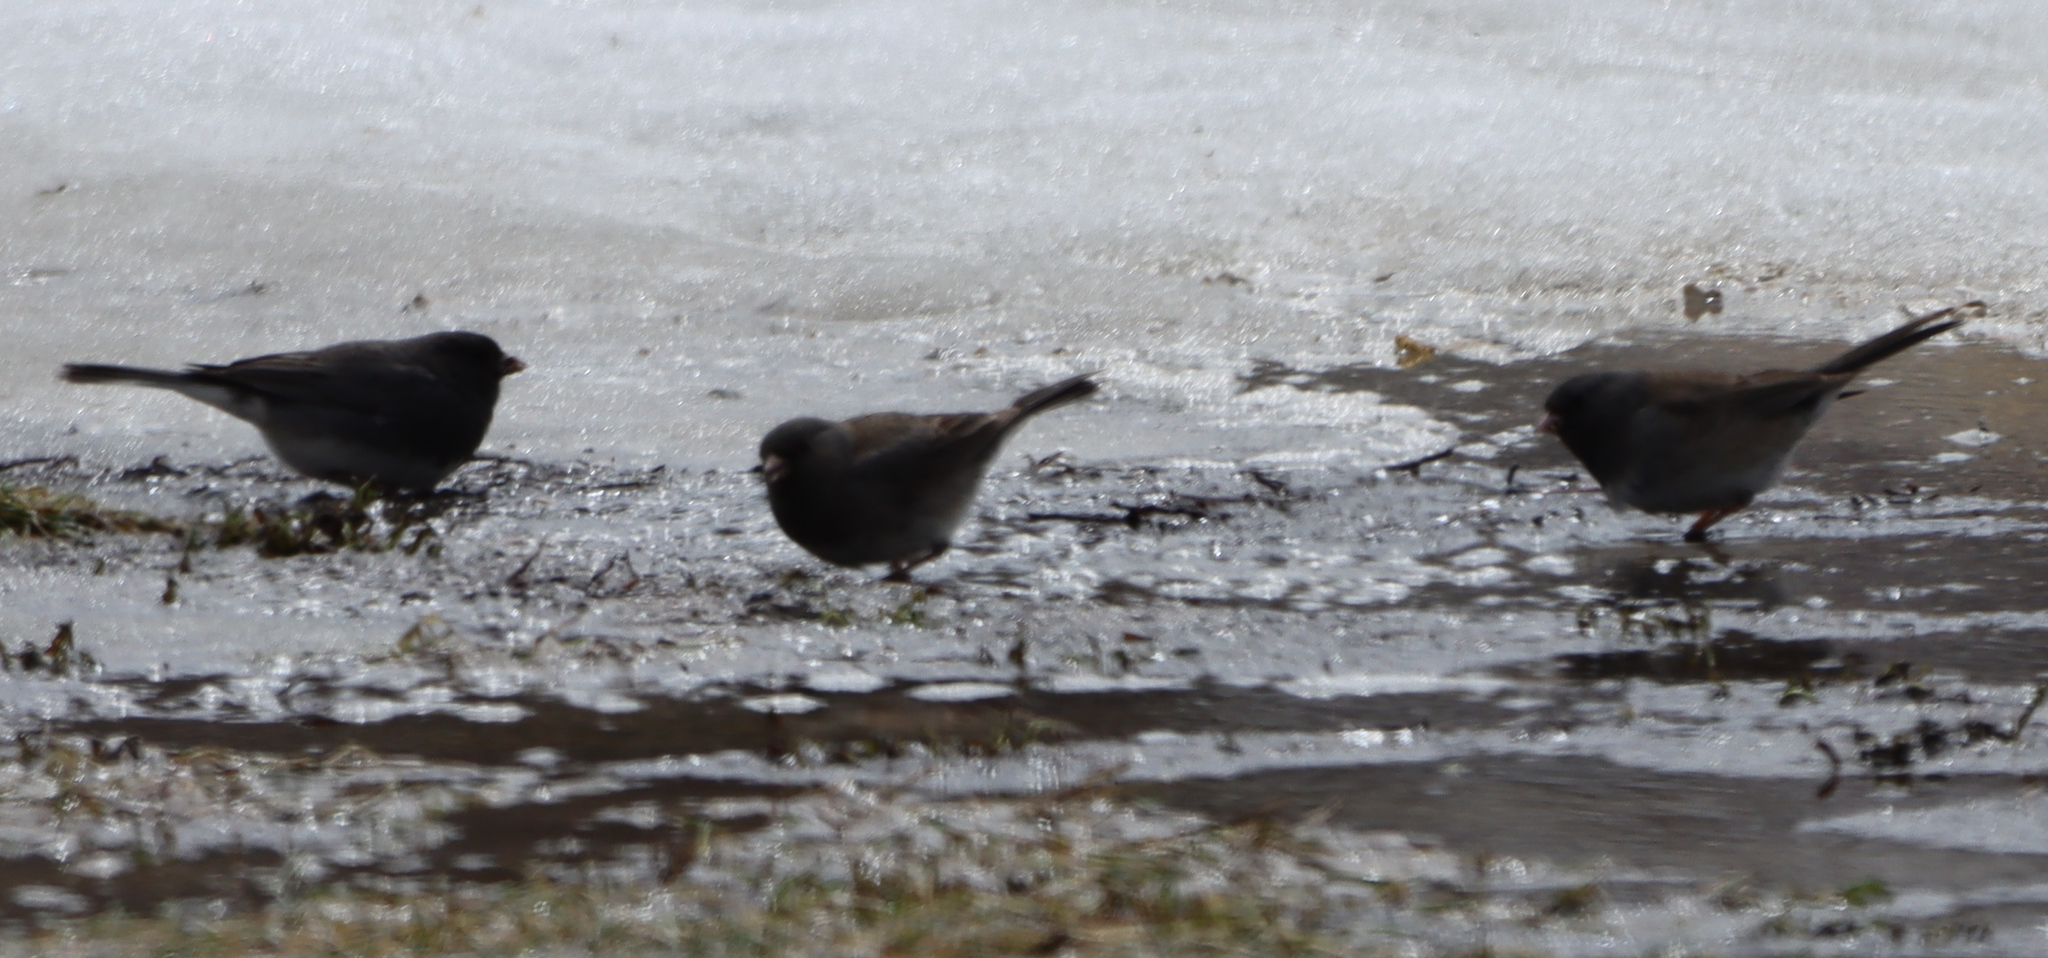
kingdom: Animalia
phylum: Chordata
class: Aves
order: Passeriformes
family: Passerellidae
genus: Junco
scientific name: Junco hyemalis
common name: Dark-eyed junco
